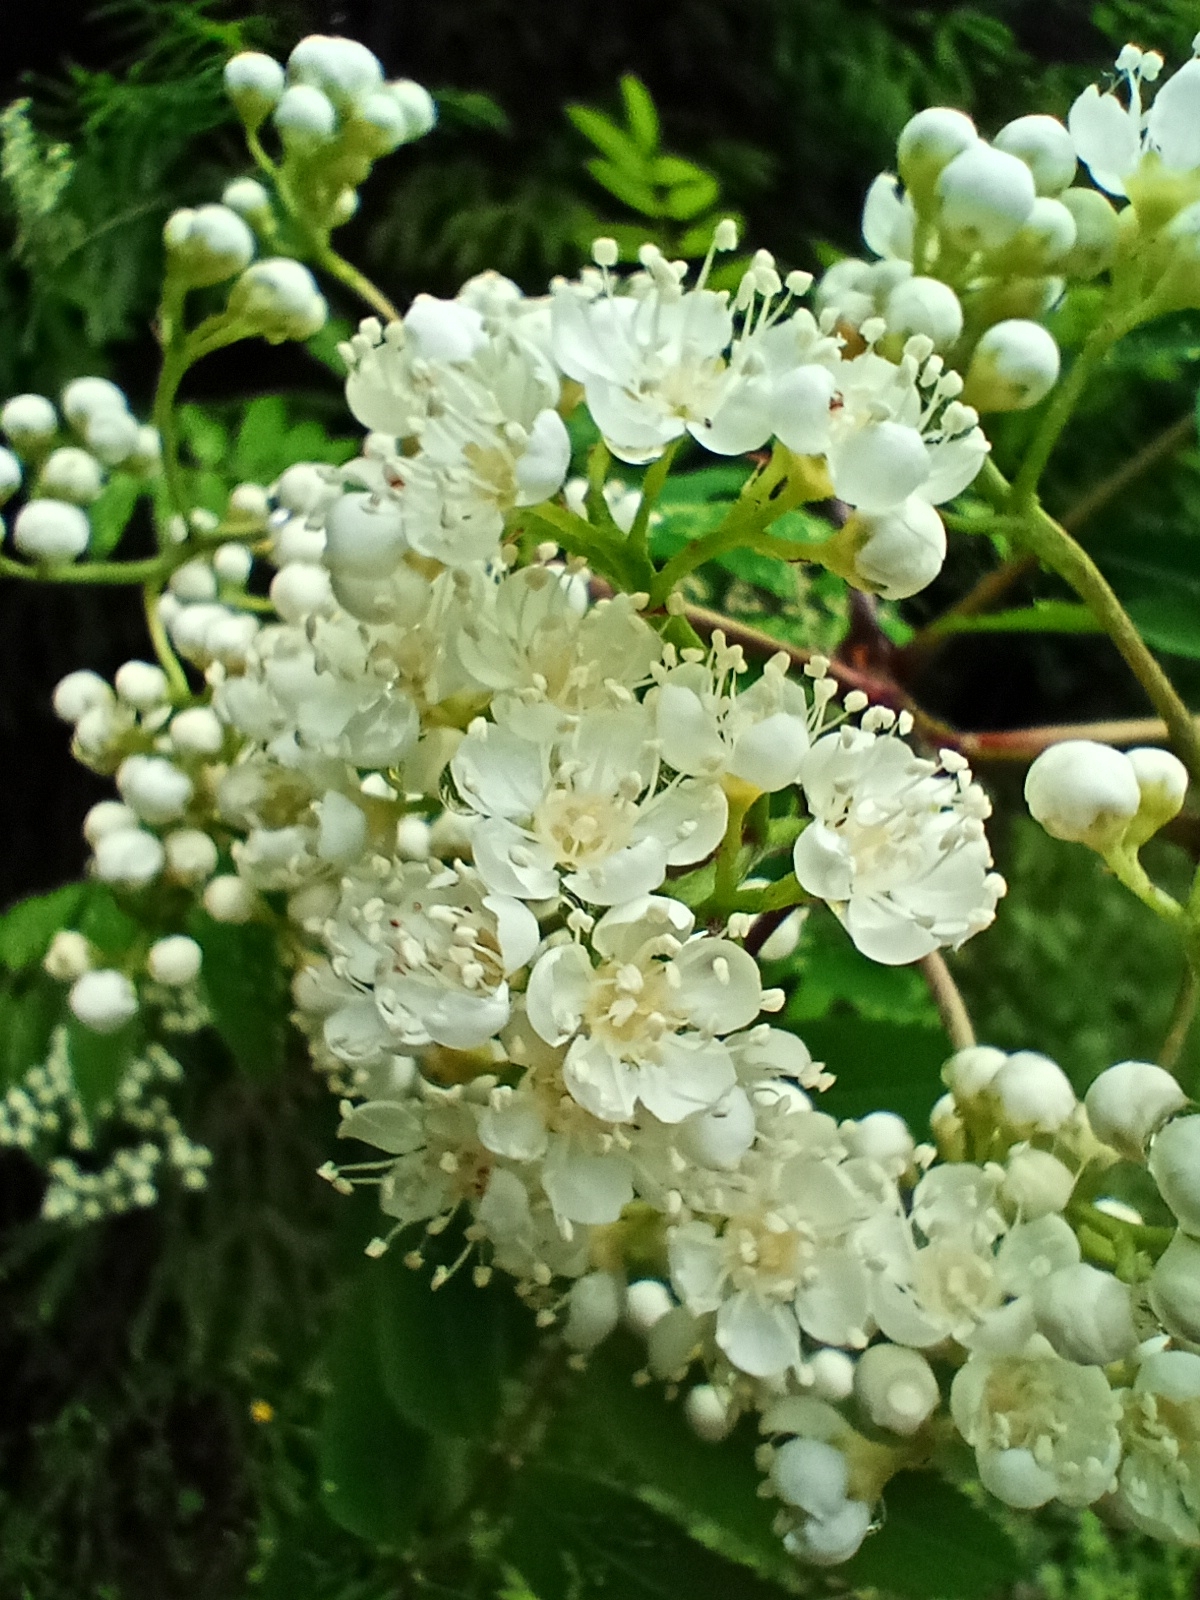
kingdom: Plantae
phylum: Tracheophyta
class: Magnoliopsida
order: Rosales
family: Rosaceae
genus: Sorbus
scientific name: Sorbus aucuparia
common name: Rowan
